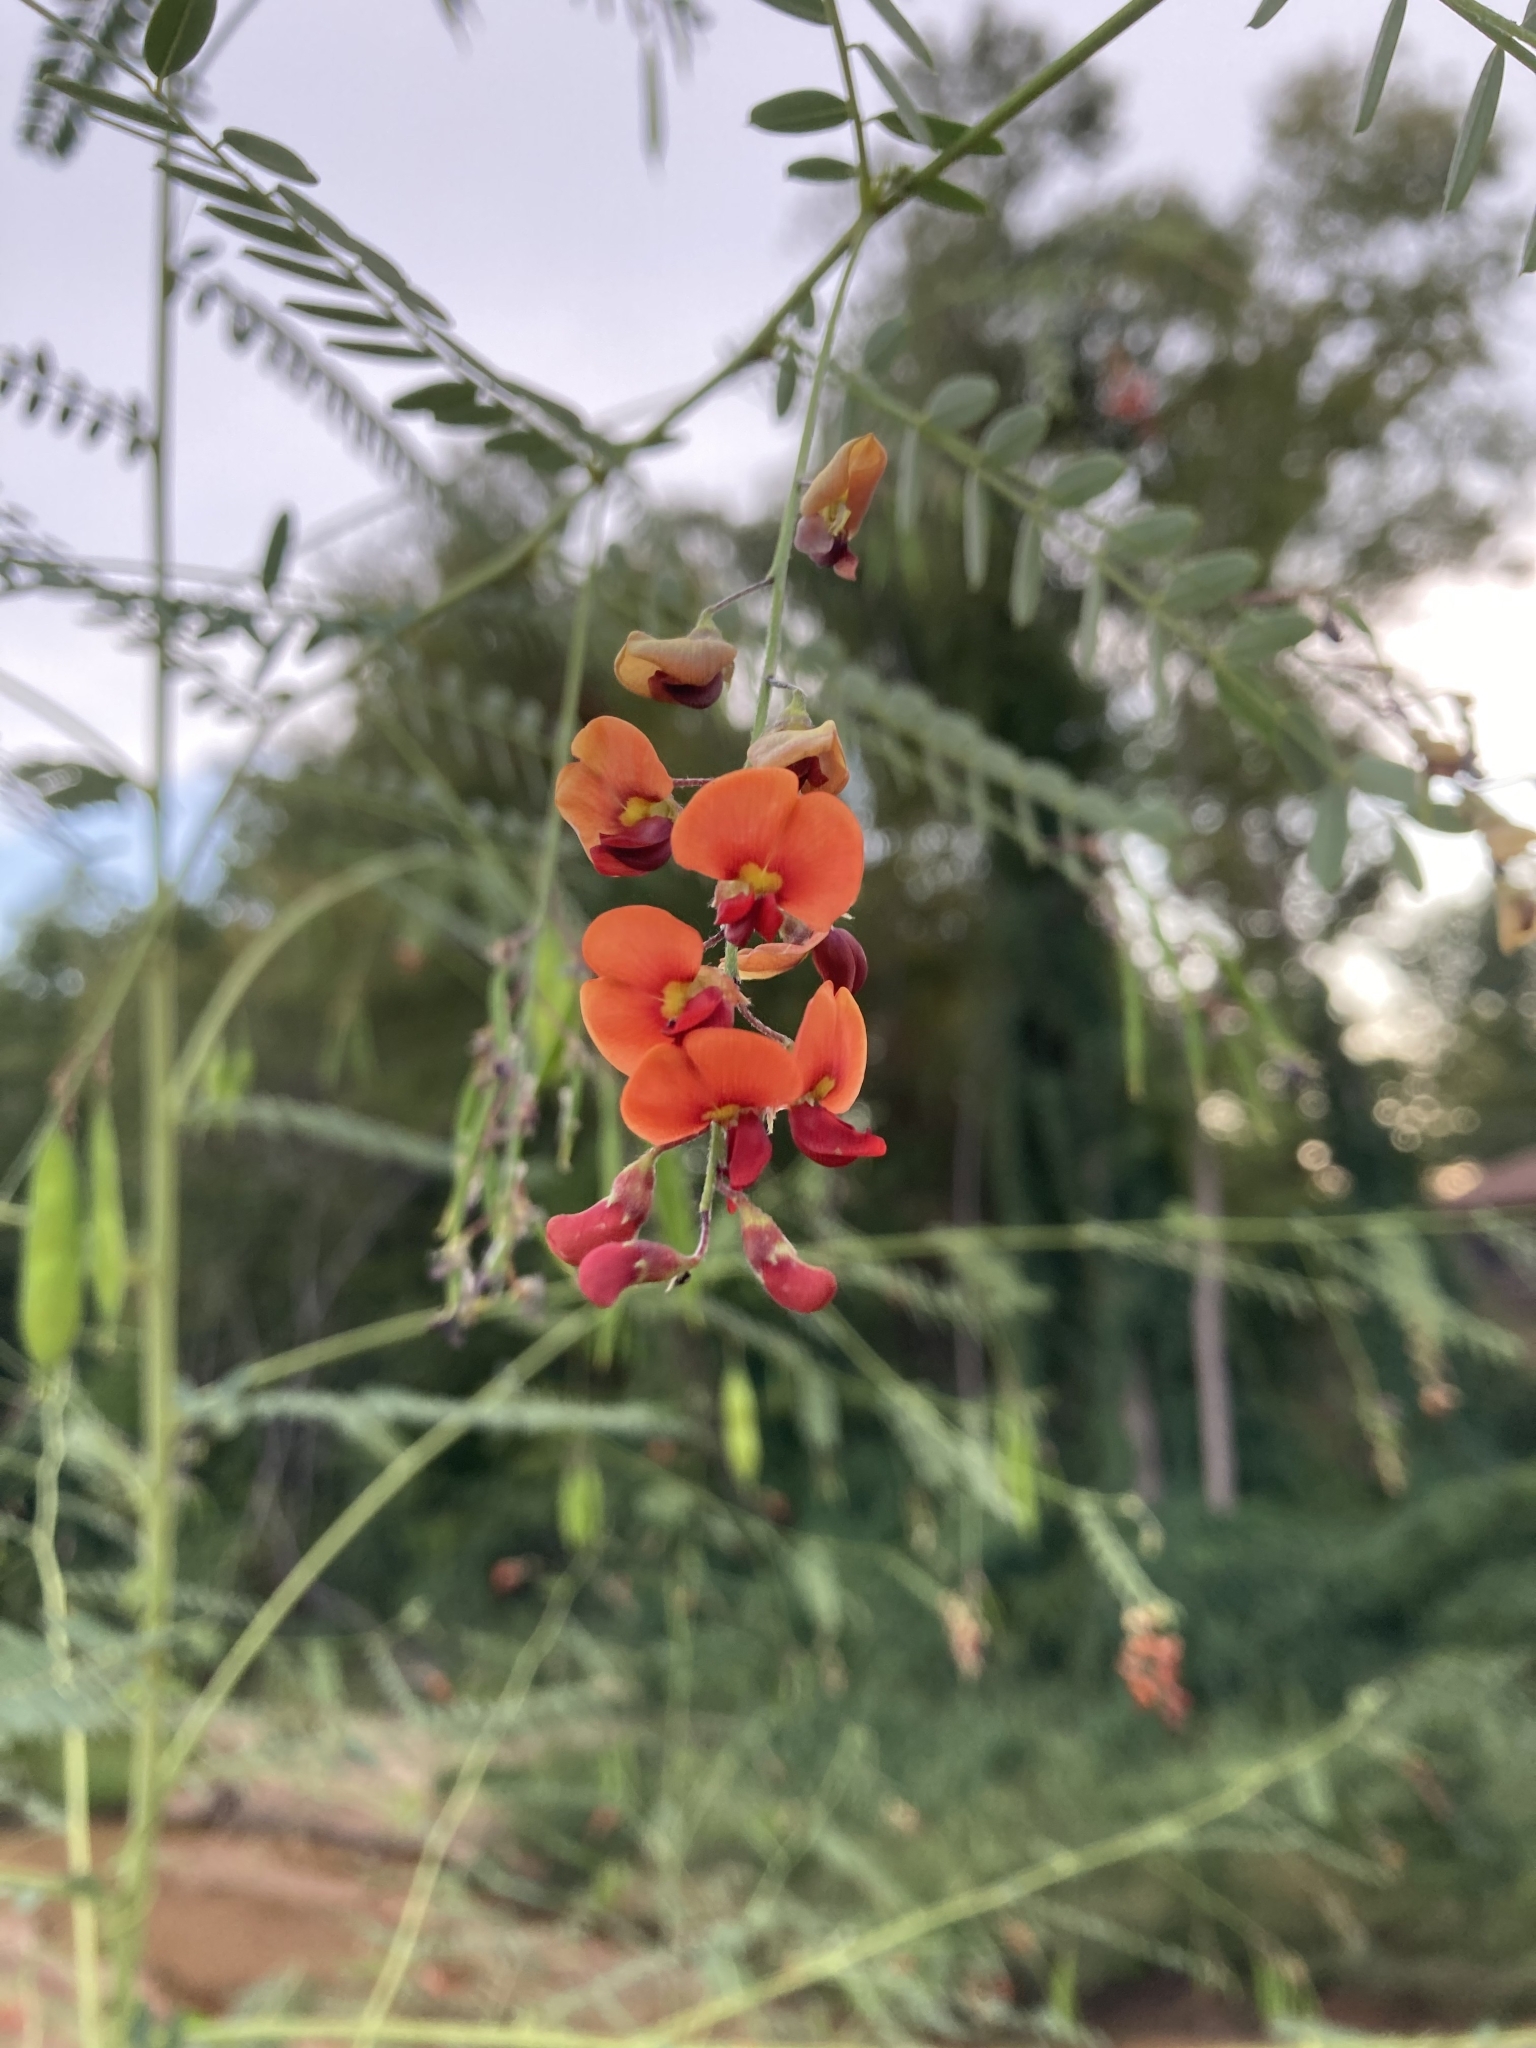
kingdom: Plantae
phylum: Tracheophyta
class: Magnoliopsida
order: Fabales
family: Fabaceae
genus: Sesbania
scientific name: Sesbania vesicaria
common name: Bagpod
